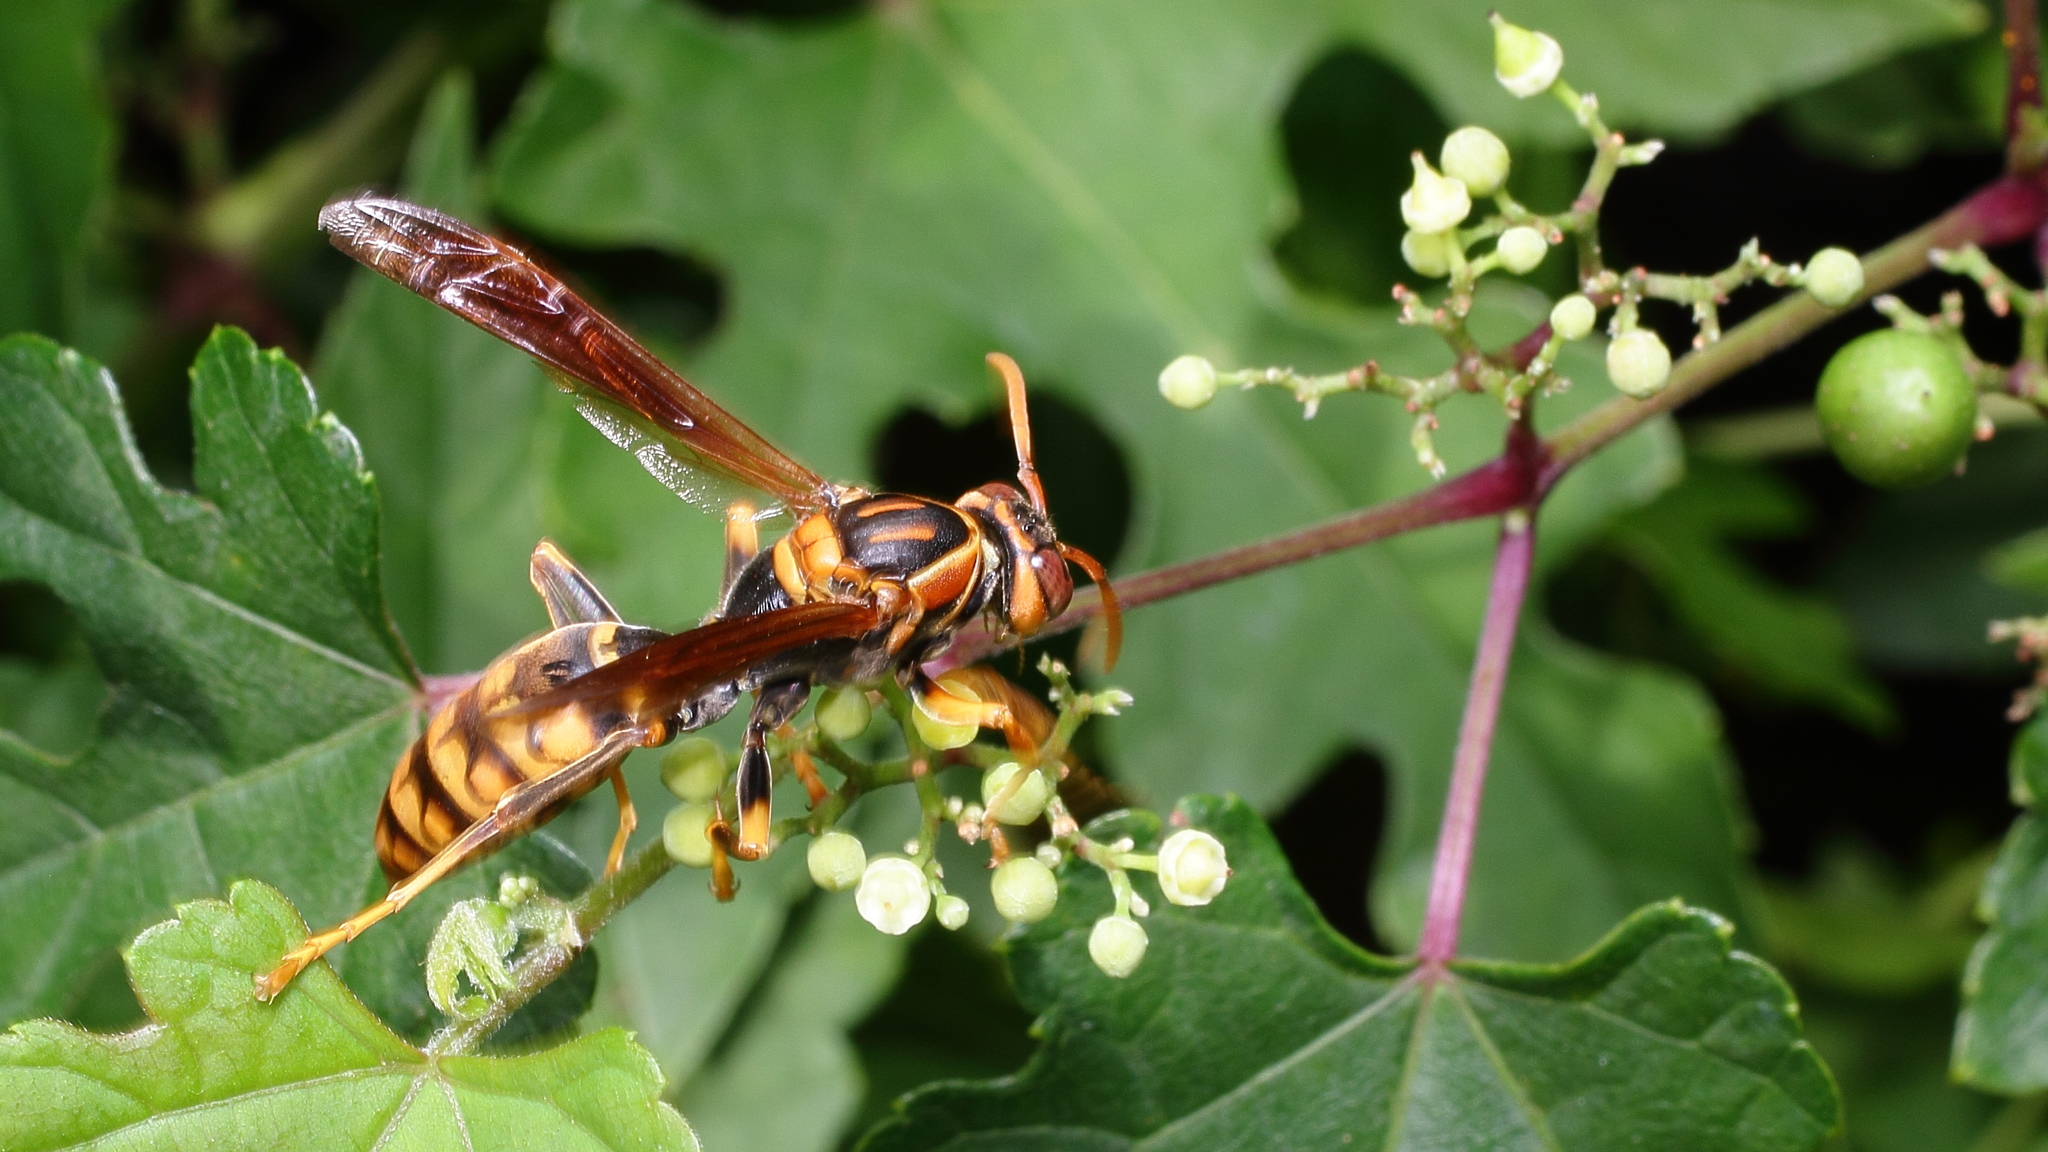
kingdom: Animalia
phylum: Arthropoda
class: Insecta
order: Hymenoptera
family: Eumenidae
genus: Polistes
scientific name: Polistes jokahamae
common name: Paper wasp
